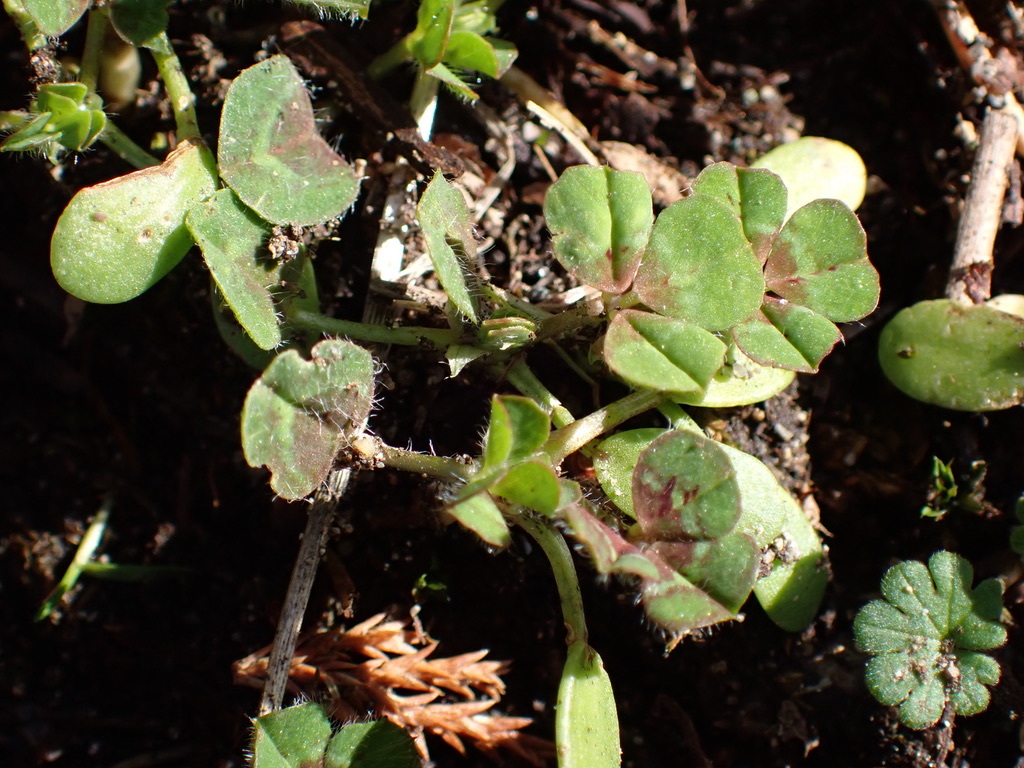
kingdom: Plantae
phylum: Tracheophyta
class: Magnoliopsida
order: Fabales
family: Fabaceae
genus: Trifolium
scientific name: Trifolium subterraneum
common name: Subterranean clover
